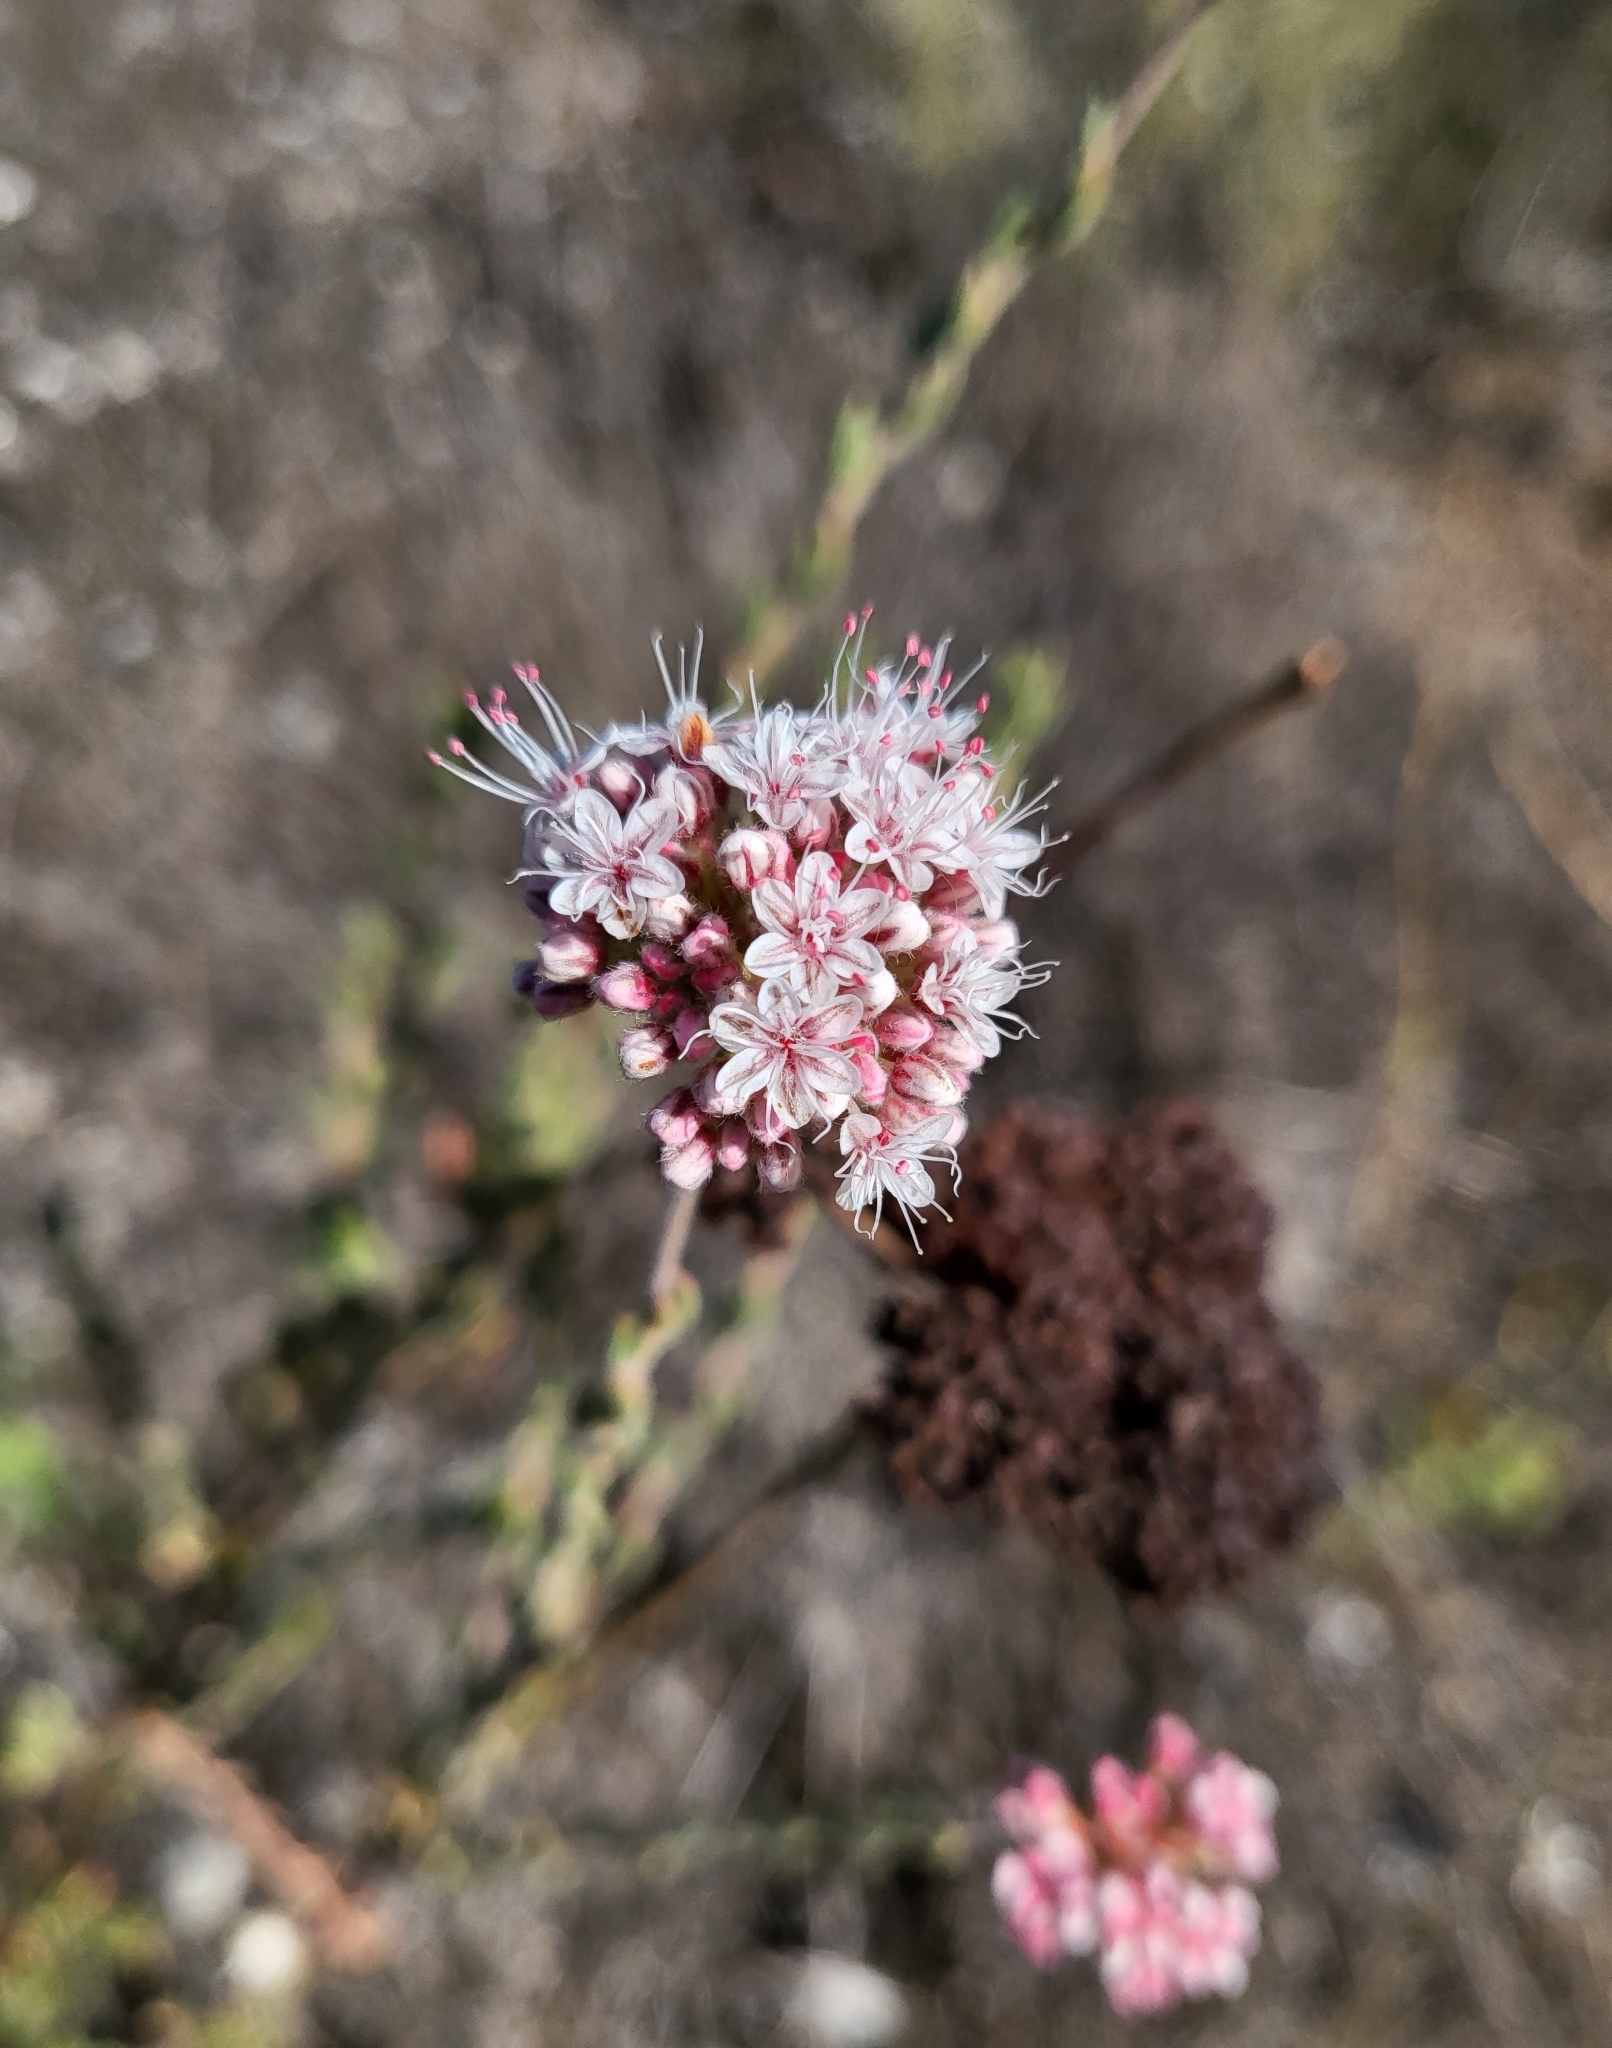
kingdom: Plantae
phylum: Tracheophyta
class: Magnoliopsida
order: Caryophyllales
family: Polygonaceae
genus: Eriogonum
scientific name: Eriogonum fasciculatum
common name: California wild buckwheat
